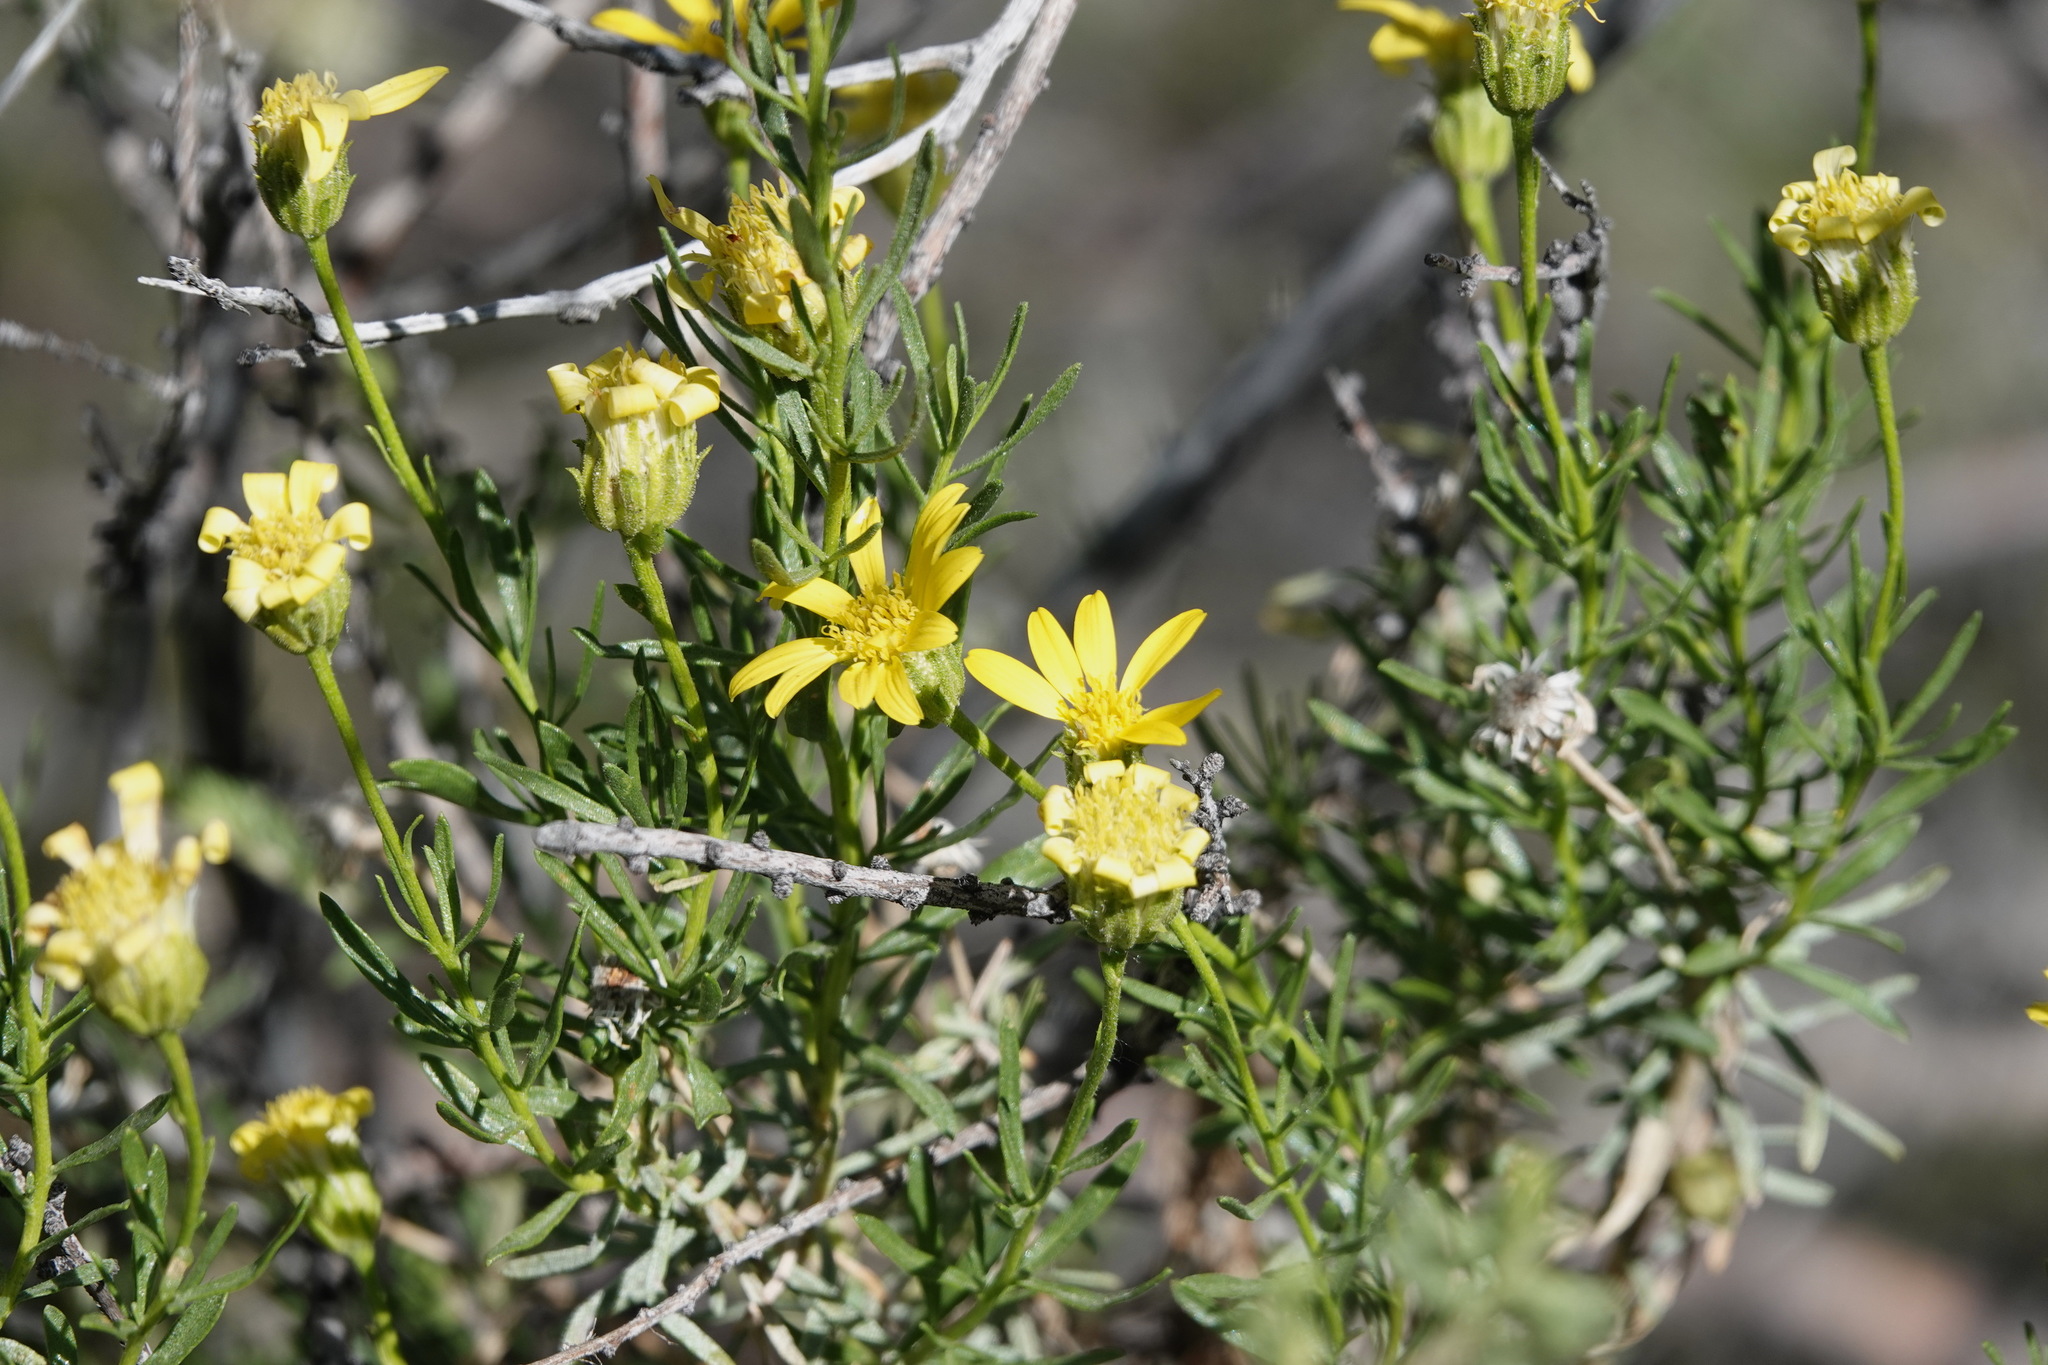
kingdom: Plantae
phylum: Tracheophyta
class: Magnoliopsida
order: Asterales
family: Asteraceae
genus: Ericameria
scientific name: Ericameria linearifolia
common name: Interior goldenbush
